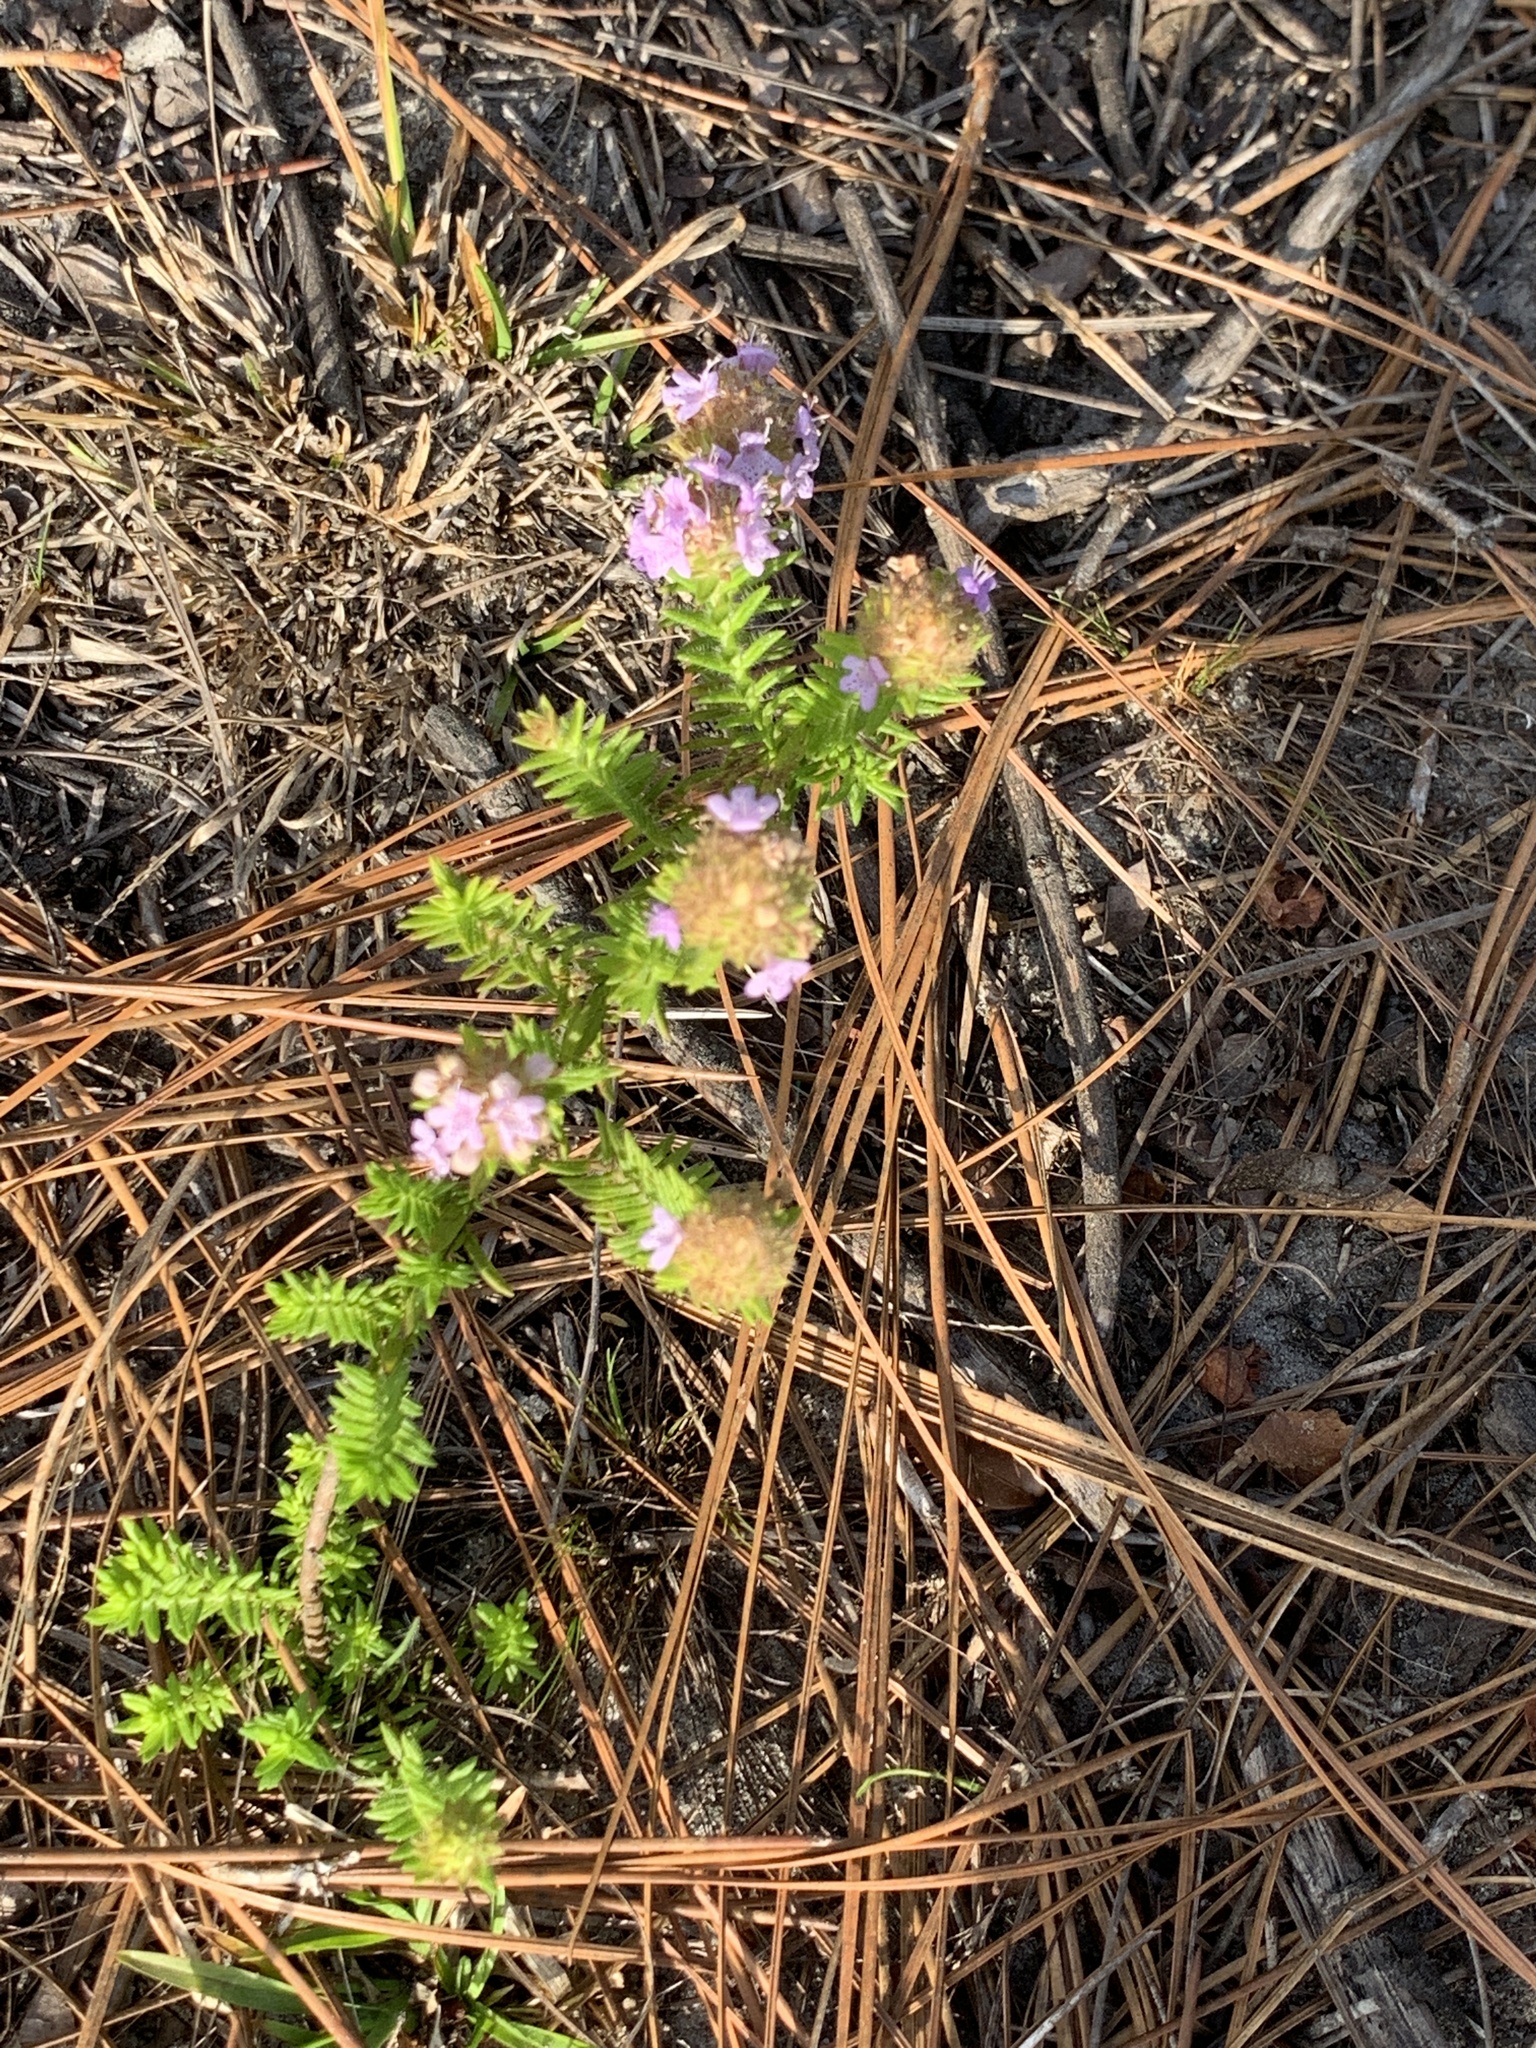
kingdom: Plantae
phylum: Tracheophyta
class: Magnoliopsida
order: Lamiales
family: Lamiaceae
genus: Piloblephis
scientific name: Piloblephis rigida
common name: Wild pennyroyal
